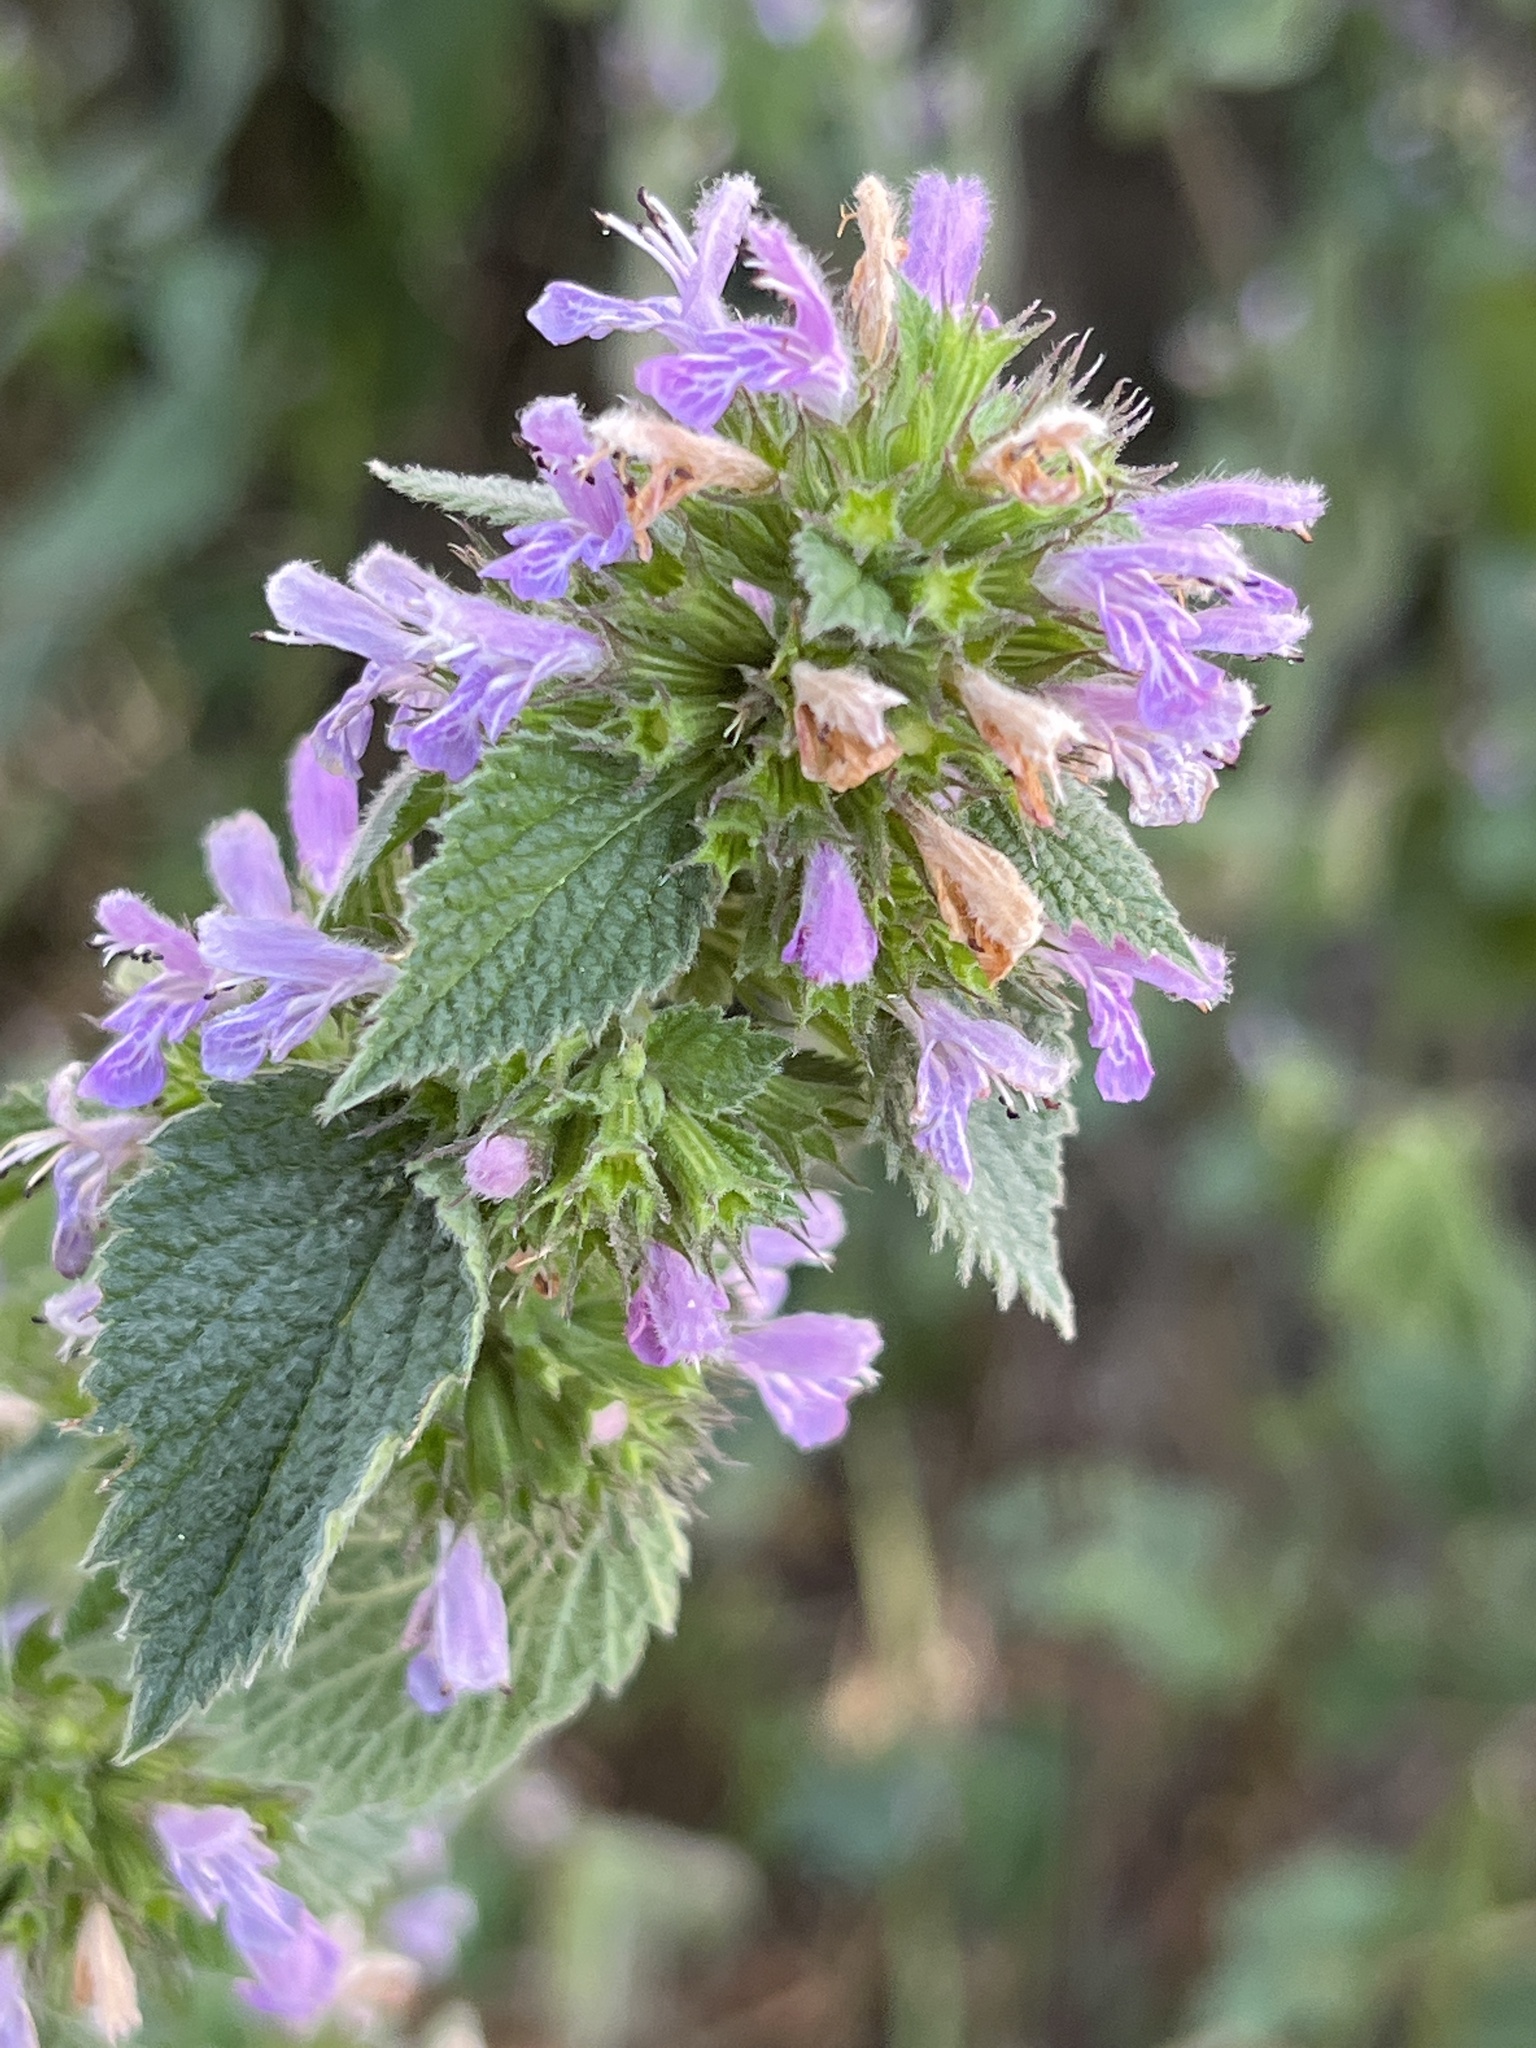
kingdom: Plantae
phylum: Tracheophyta
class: Magnoliopsida
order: Lamiales
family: Lamiaceae
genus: Ballota
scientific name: Ballota nigra
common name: Black horehound
